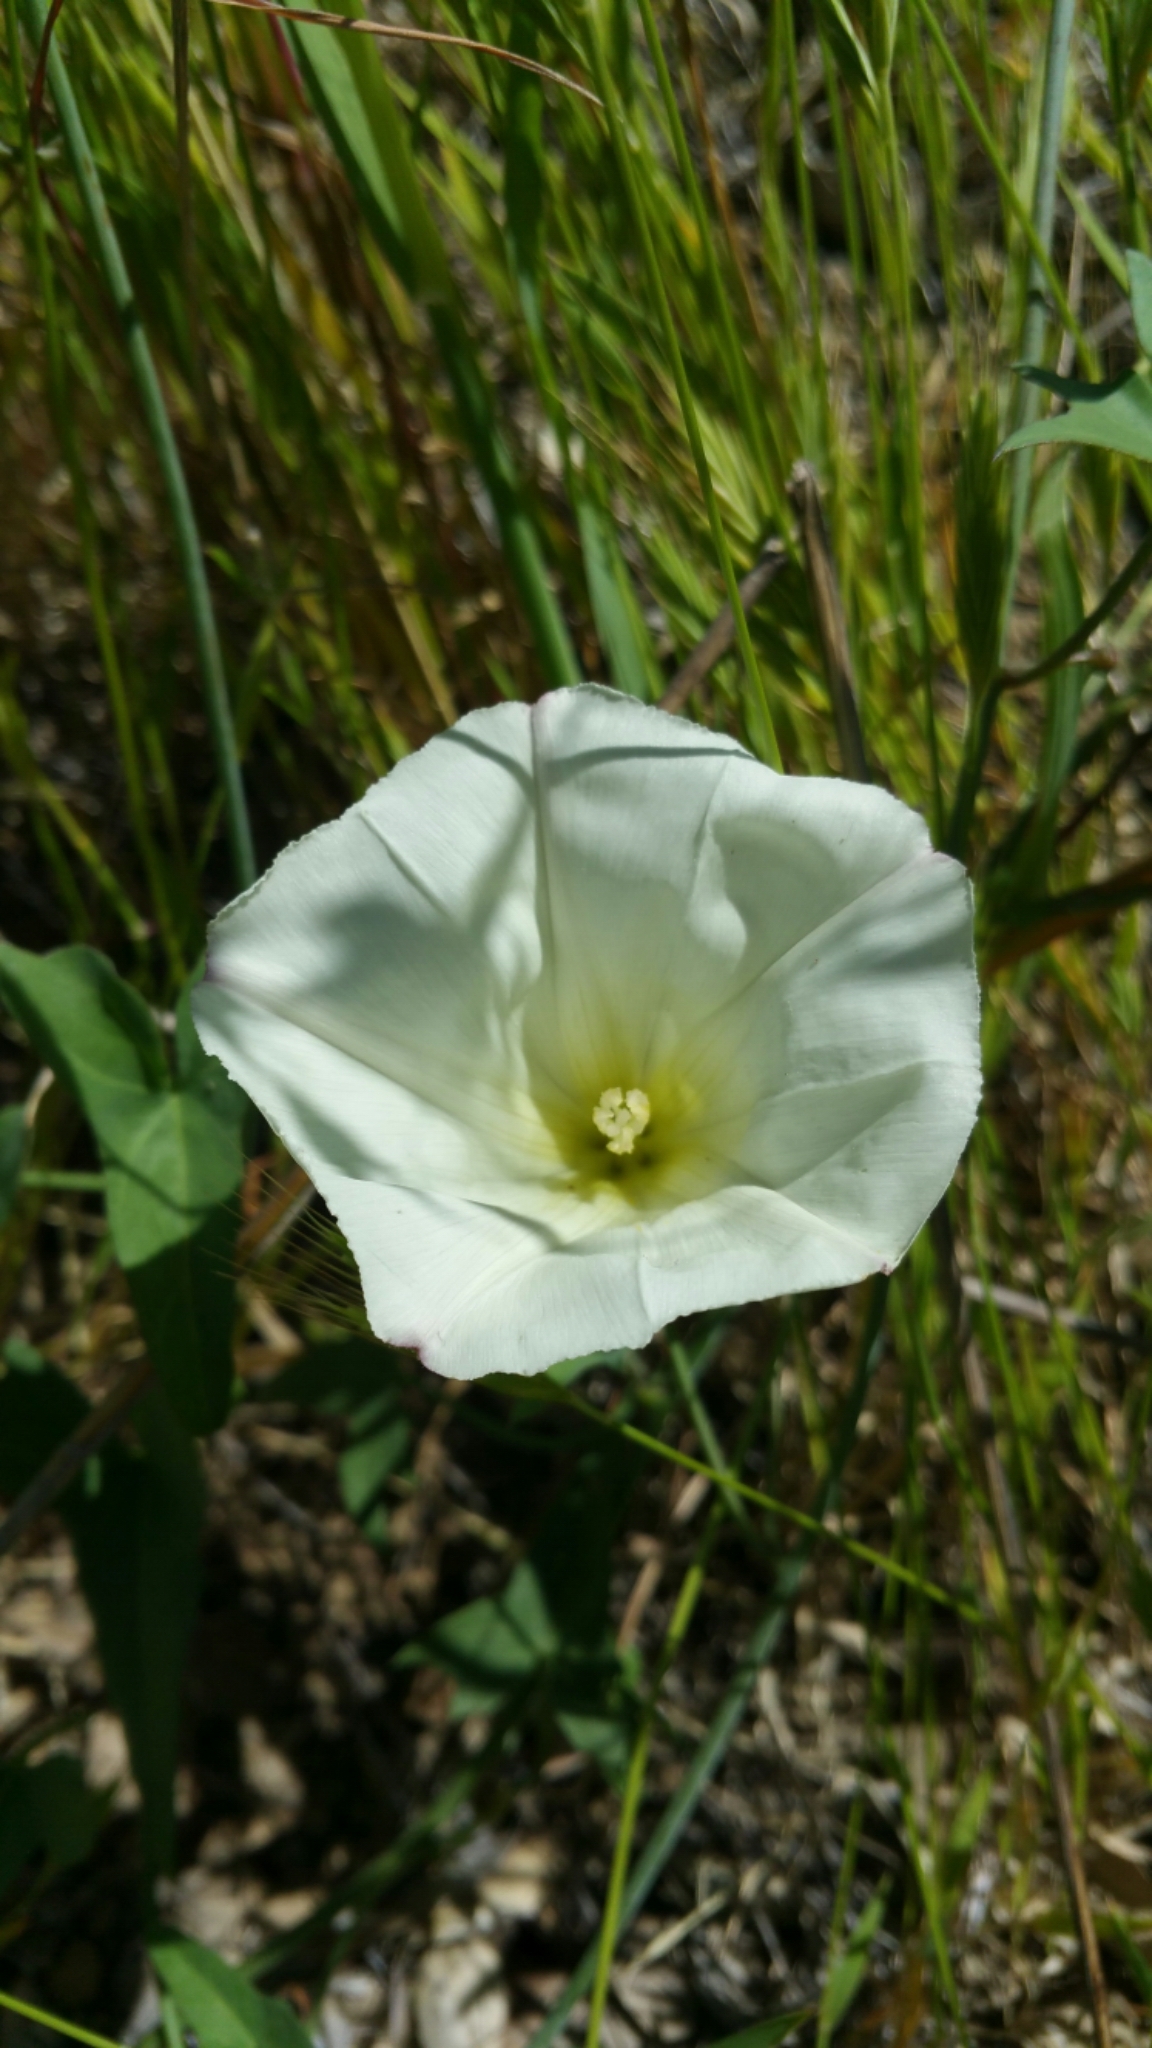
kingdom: Plantae
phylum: Tracheophyta
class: Magnoliopsida
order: Solanales
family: Convolvulaceae
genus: Calystegia
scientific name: Calystegia purpurata
